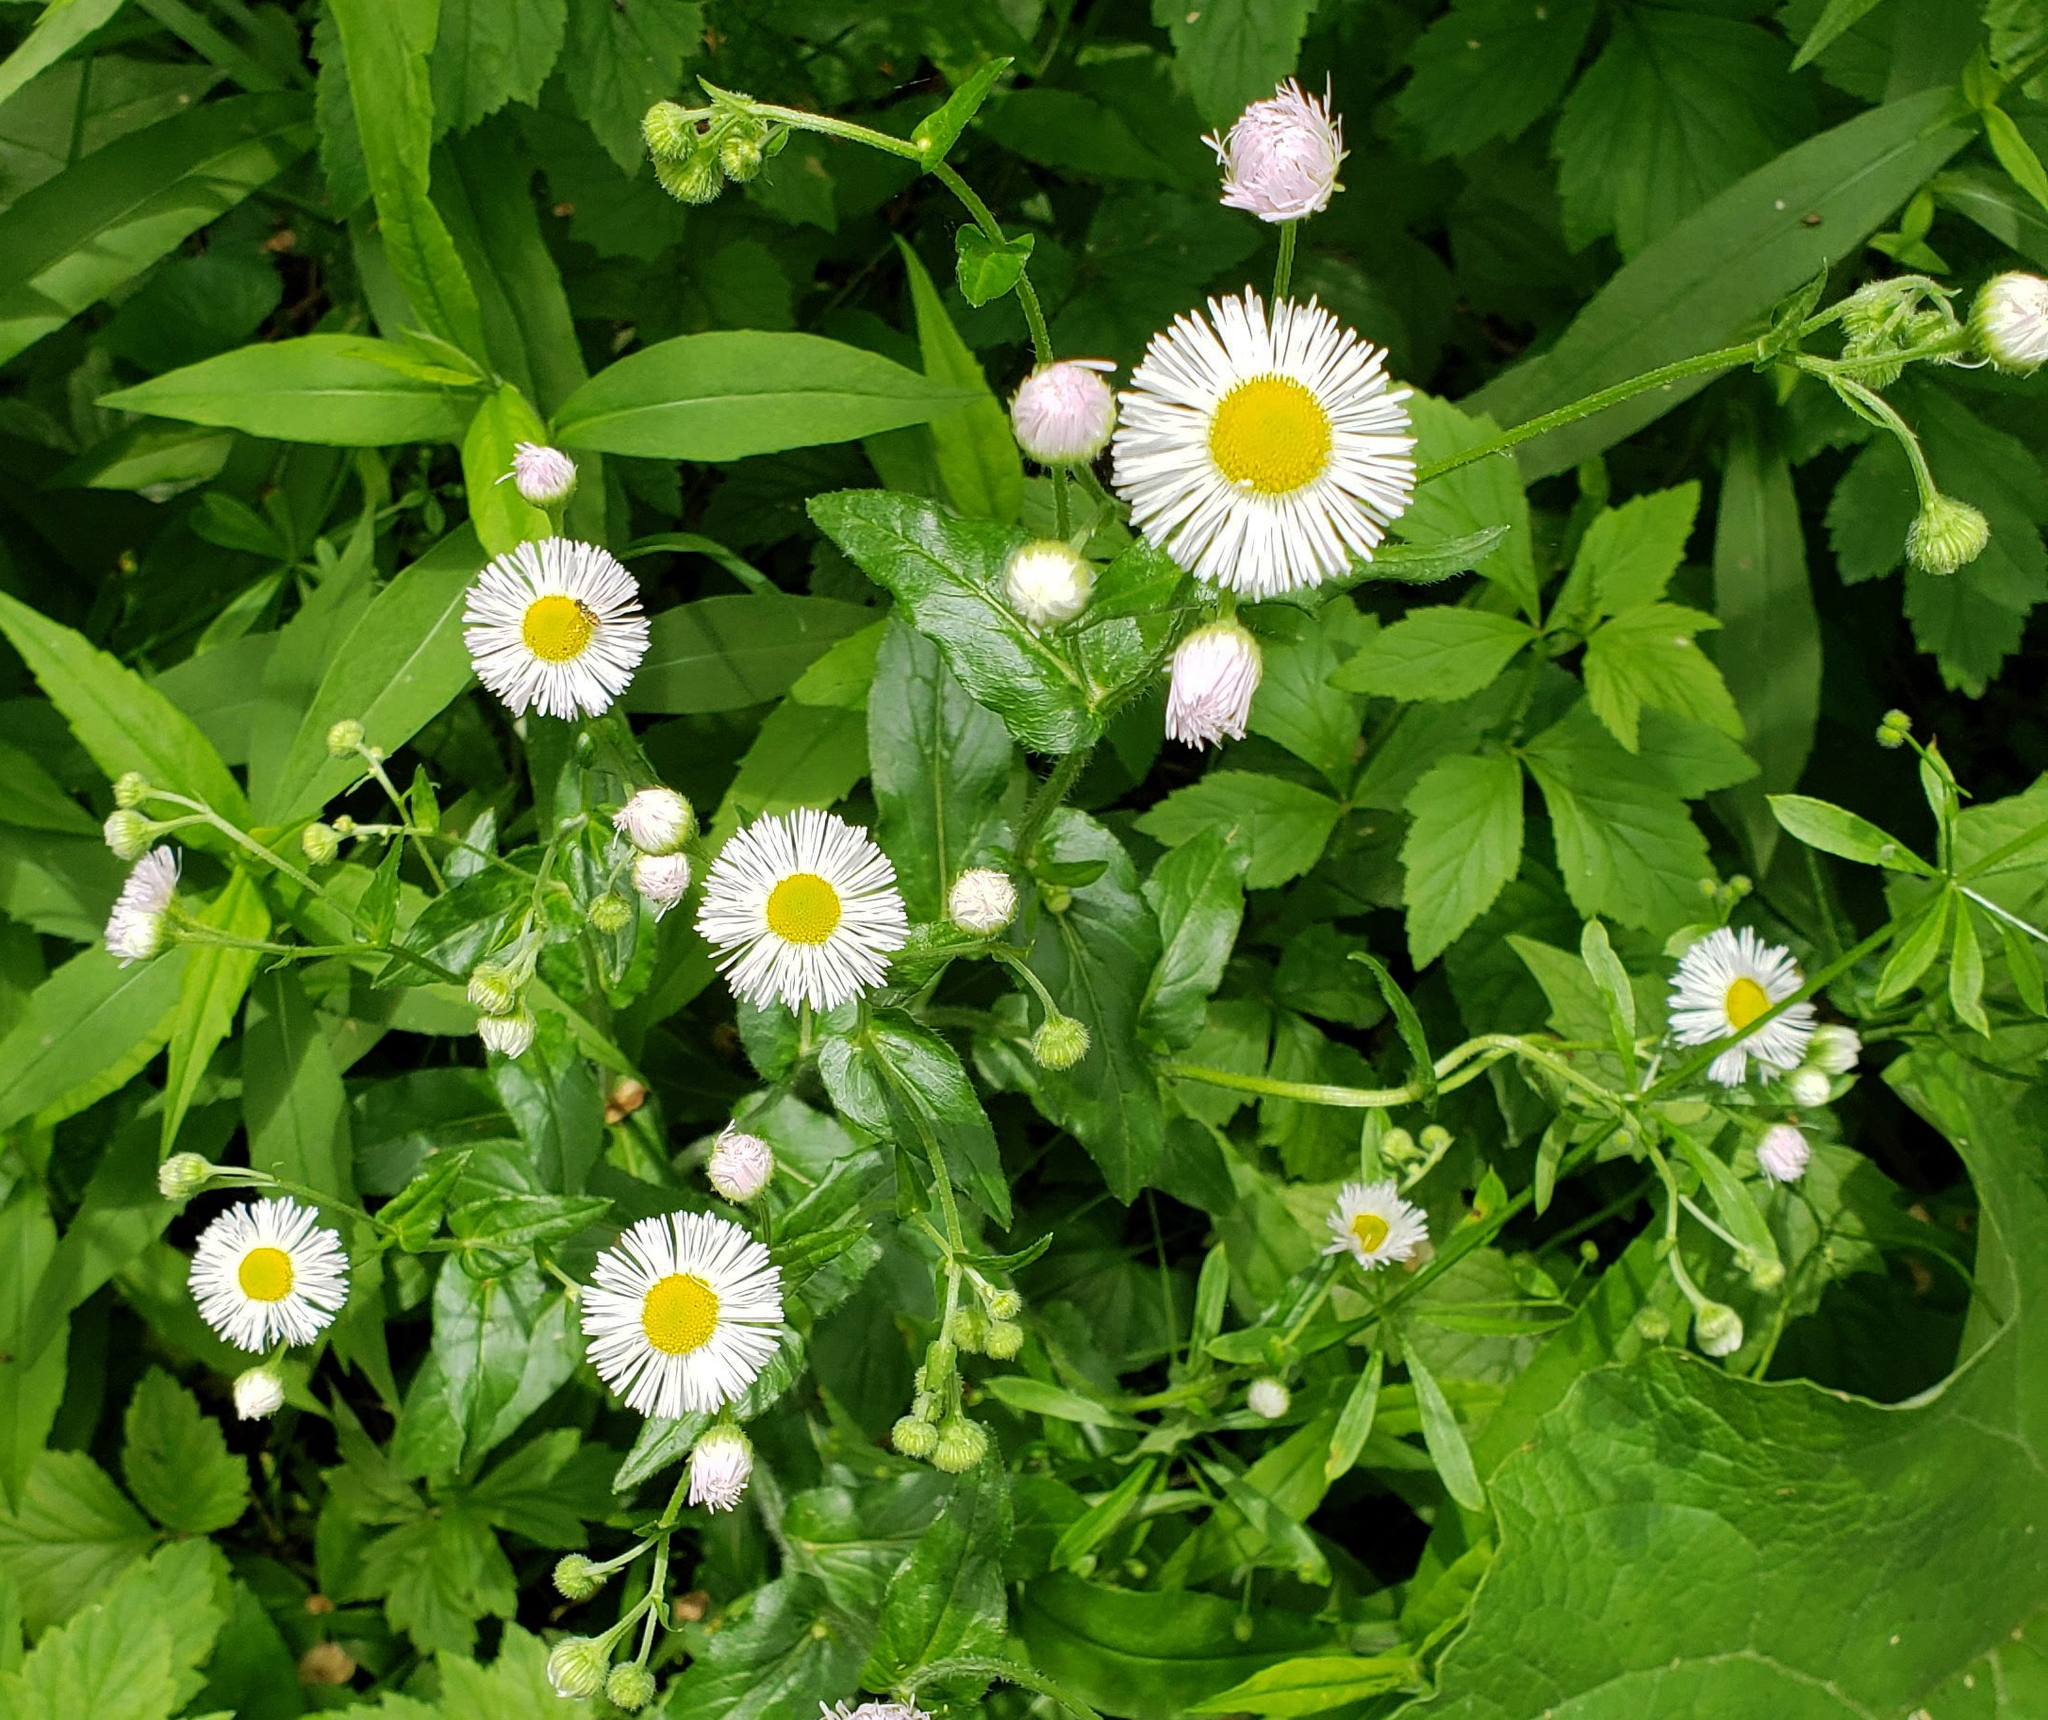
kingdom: Plantae
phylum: Tracheophyta
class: Magnoliopsida
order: Asterales
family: Asteraceae
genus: Erigeron
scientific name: Erigeron philadelphicus
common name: Robin's-plantain
